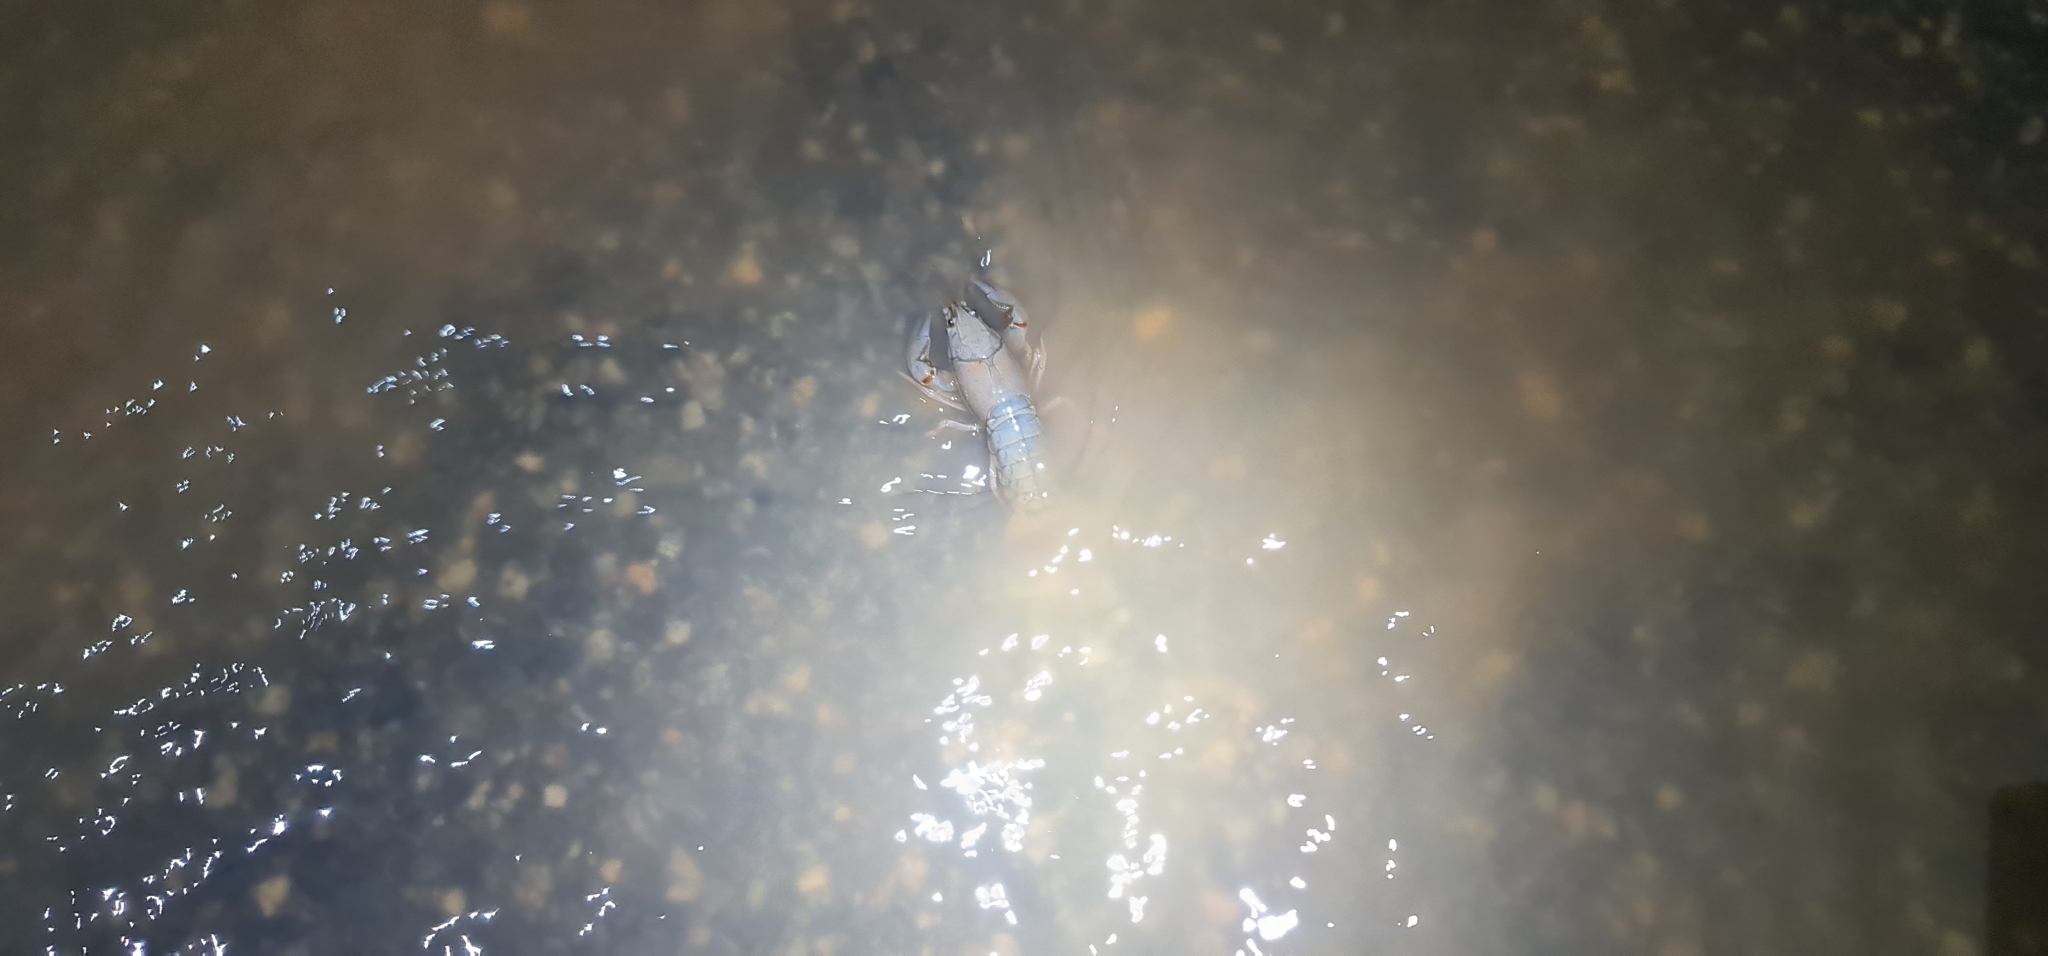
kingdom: Animalia
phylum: Arthropoda
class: Malacostraca
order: Decapoda
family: Parastacidae
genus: Cherax
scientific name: Cherax destructor
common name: Yabby
